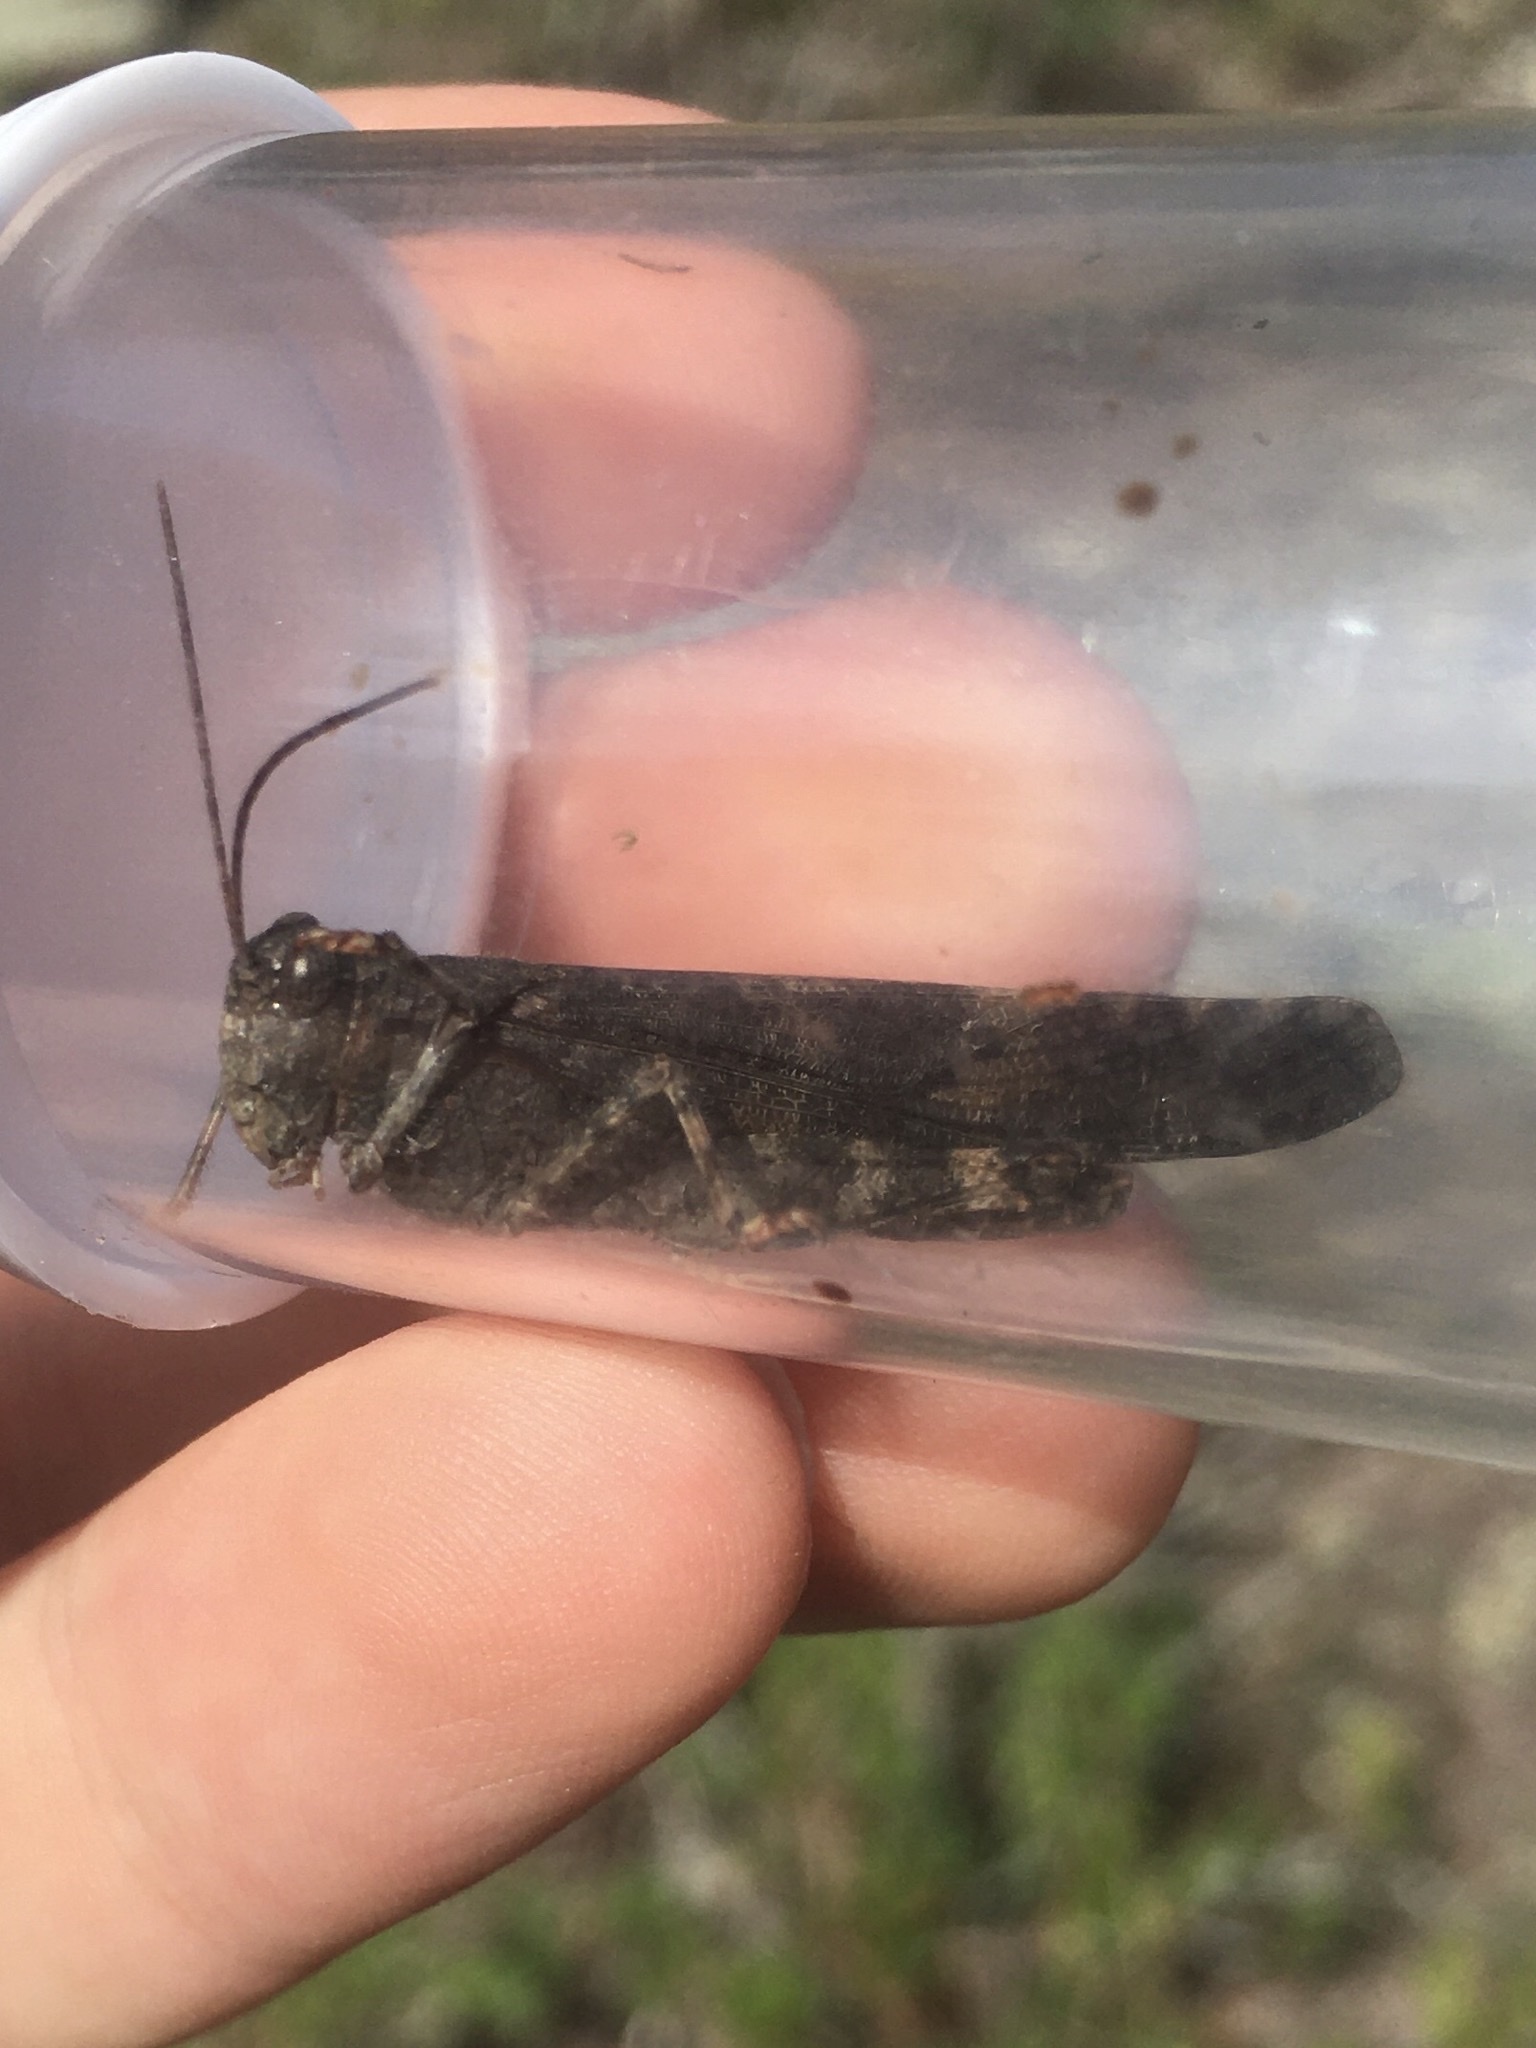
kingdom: Animalia
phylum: Arthropoda
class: Insecta
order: Orthoptera
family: Acrididae
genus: Trimerotropis
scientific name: Trimerotropis verruculata
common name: Crackling forest grasshopper
